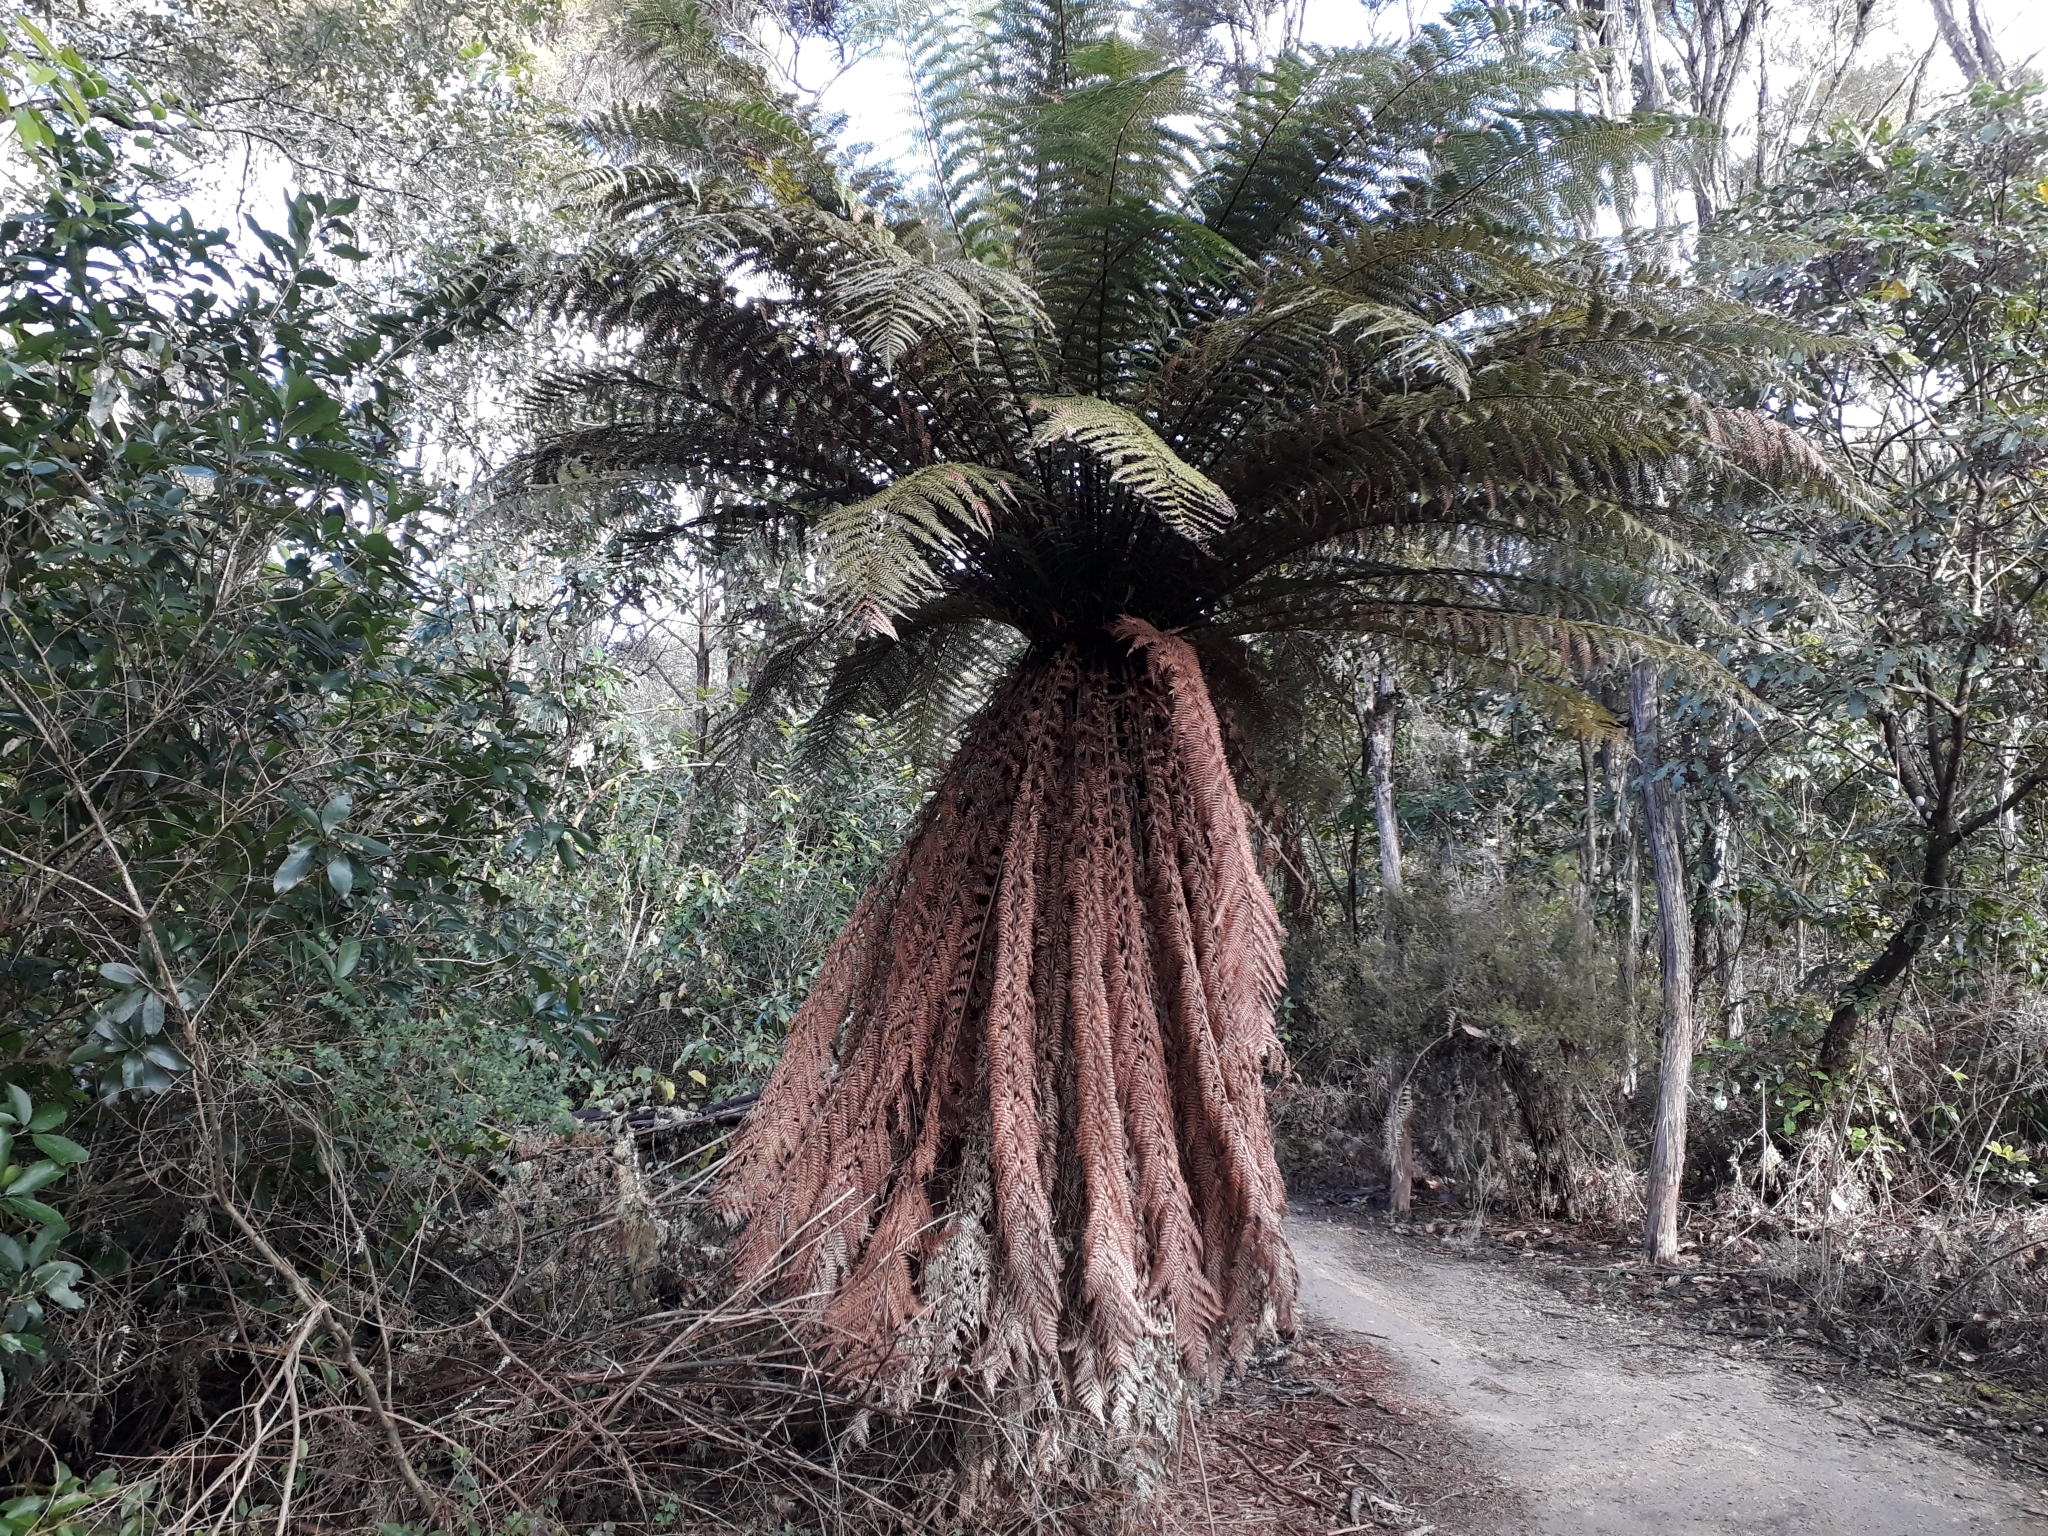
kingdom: Plantae
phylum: Tracheophyta
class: Polypodiopsida
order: Cyatheales
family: Dicksoniaceae
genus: Dicksonia
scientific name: Dicksonia fibrosa
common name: Golden tree fern
